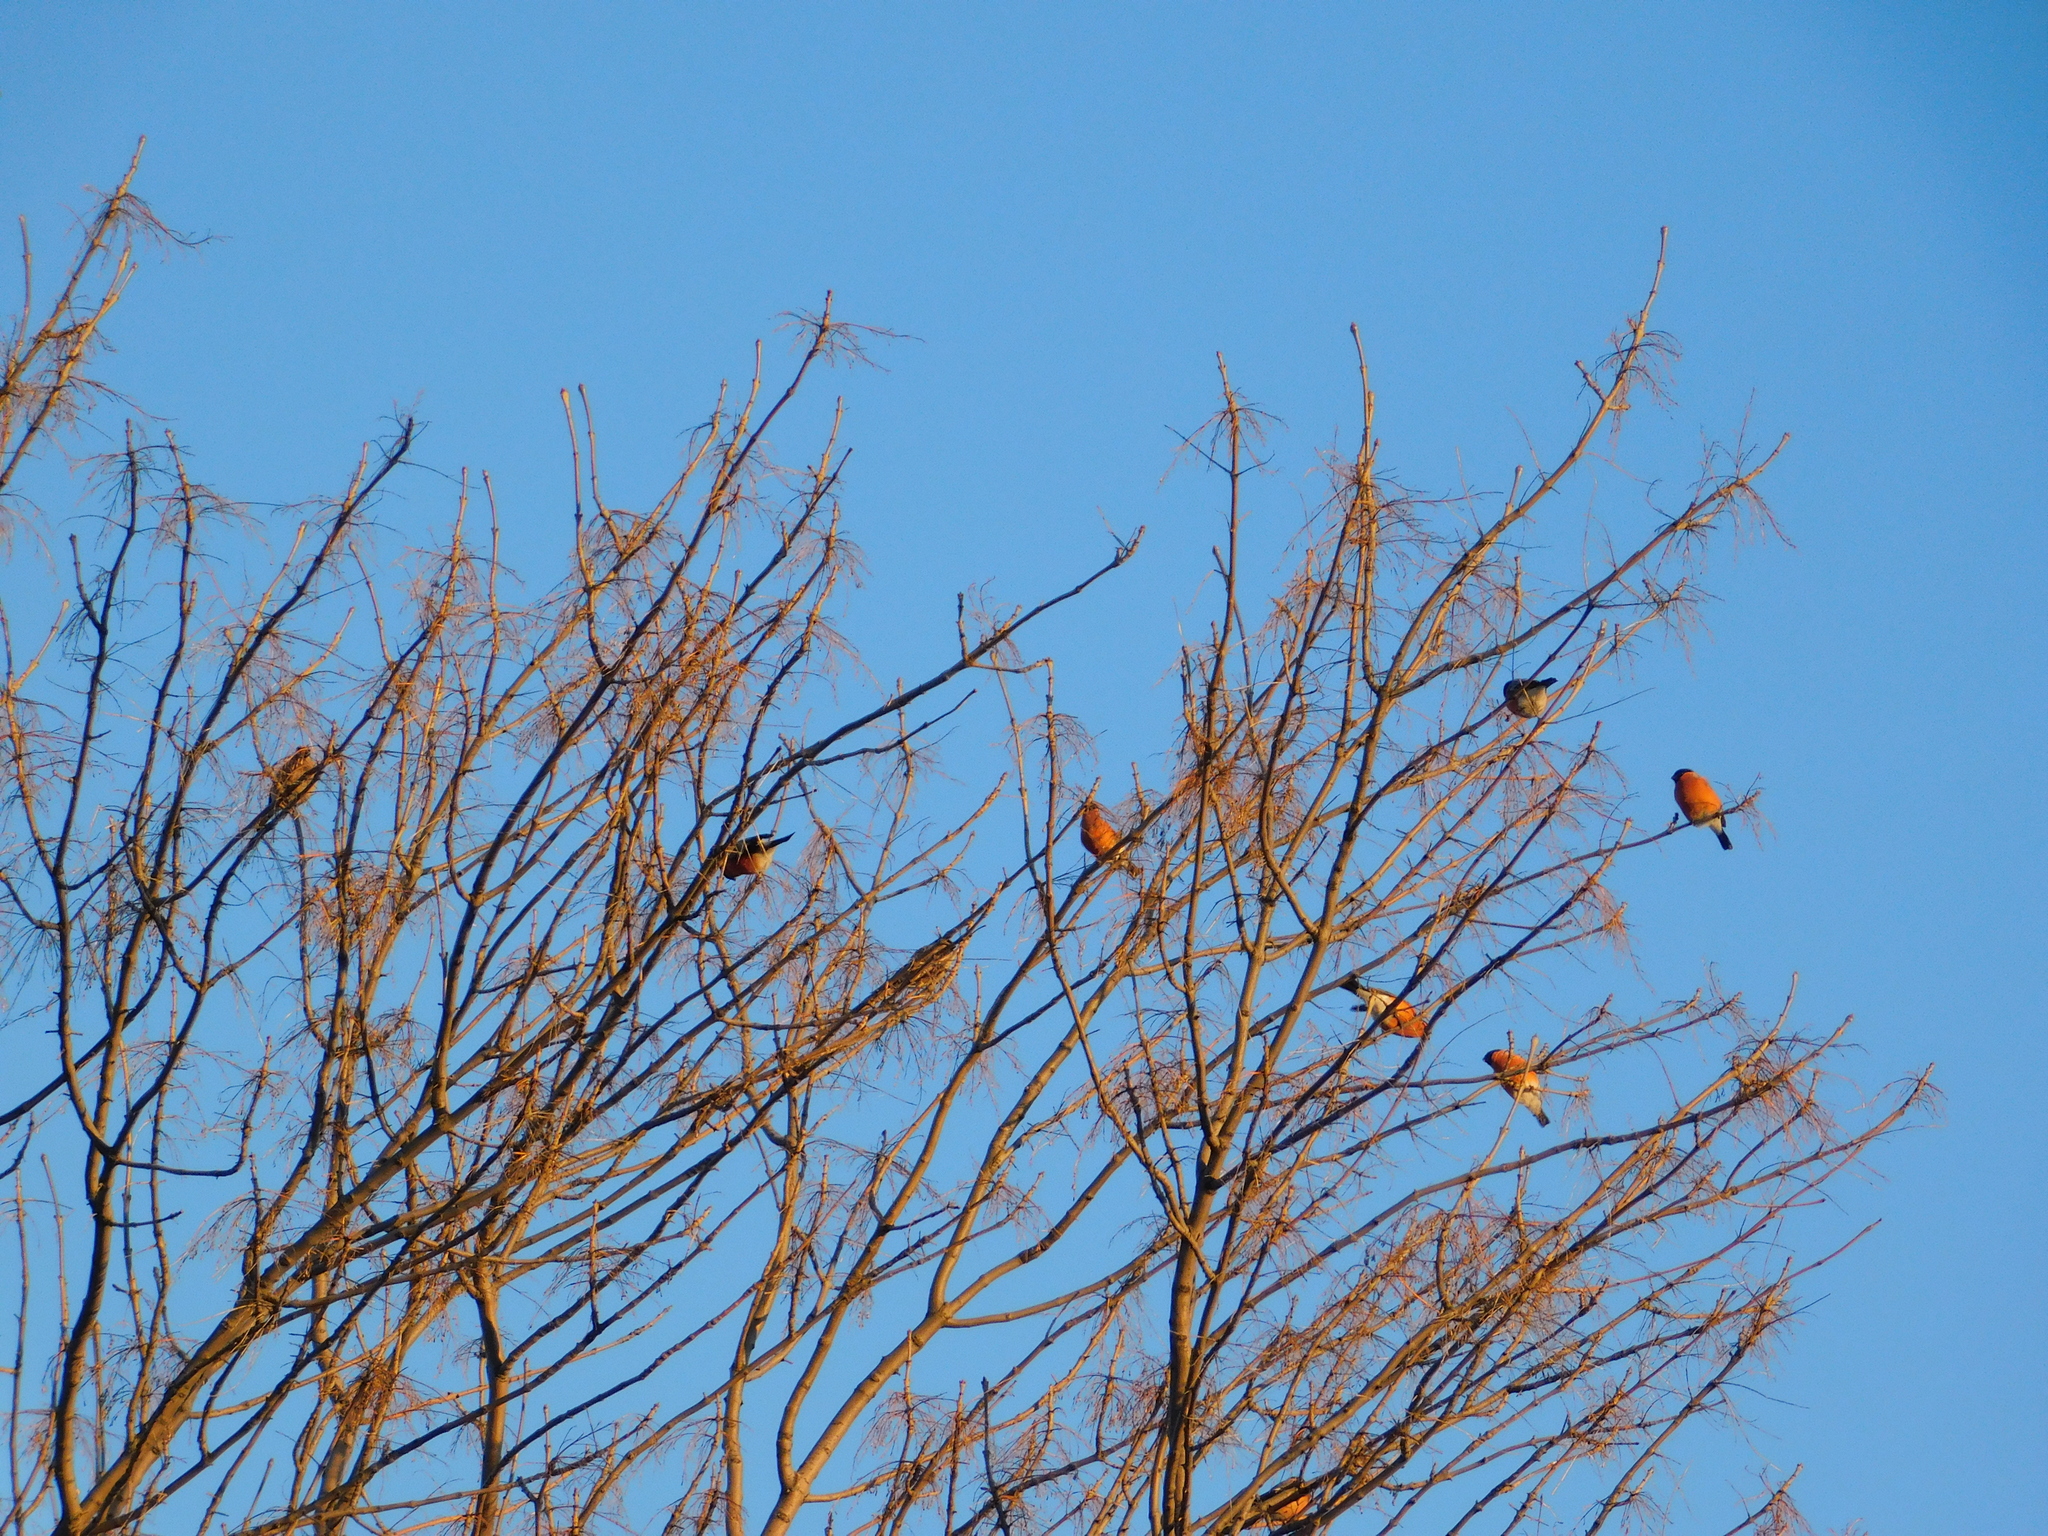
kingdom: Animalia
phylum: Chordata
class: Aves
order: Passeriformes
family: Fringillidae
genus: Pyrrhula
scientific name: Pyrrhula pyrrhula
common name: Eurasian bullfinch
